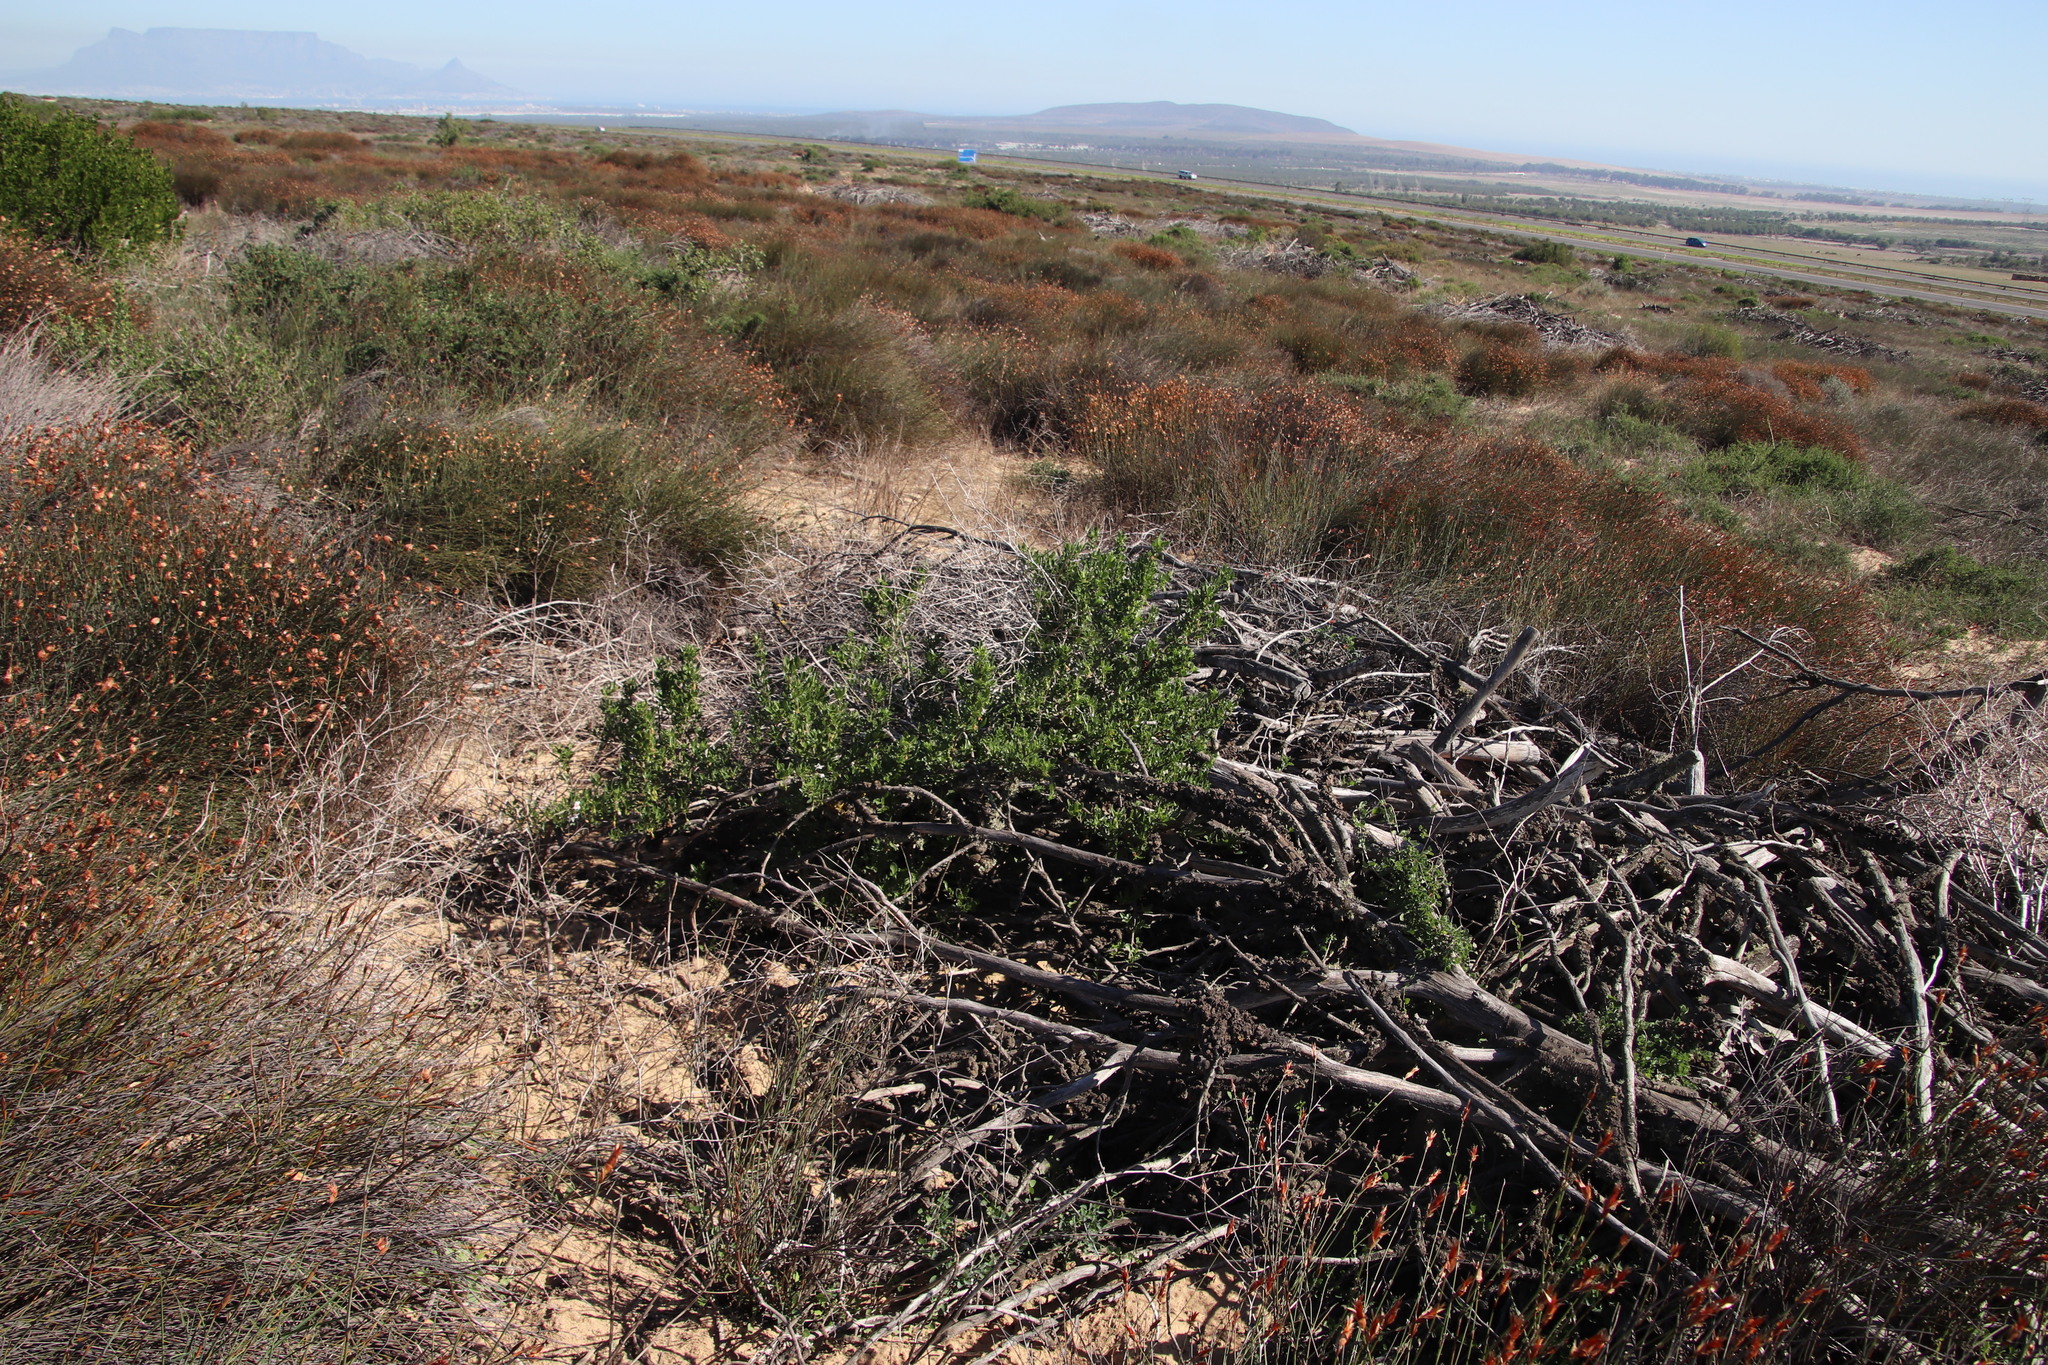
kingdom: Plantae
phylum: Tracheophyta
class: Magnoliopsida
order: Solanales
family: Solanaceae
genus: Solanum
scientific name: Solanum guineense
